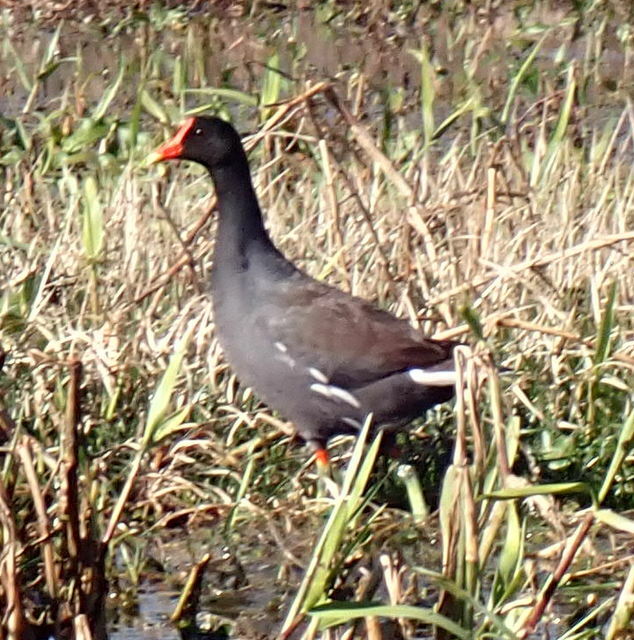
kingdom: Animalia
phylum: Chordata
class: Aves
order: Gruiformes
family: Rallidae
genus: Gallinula
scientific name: Gallinula chloropus
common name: Common moorhen
